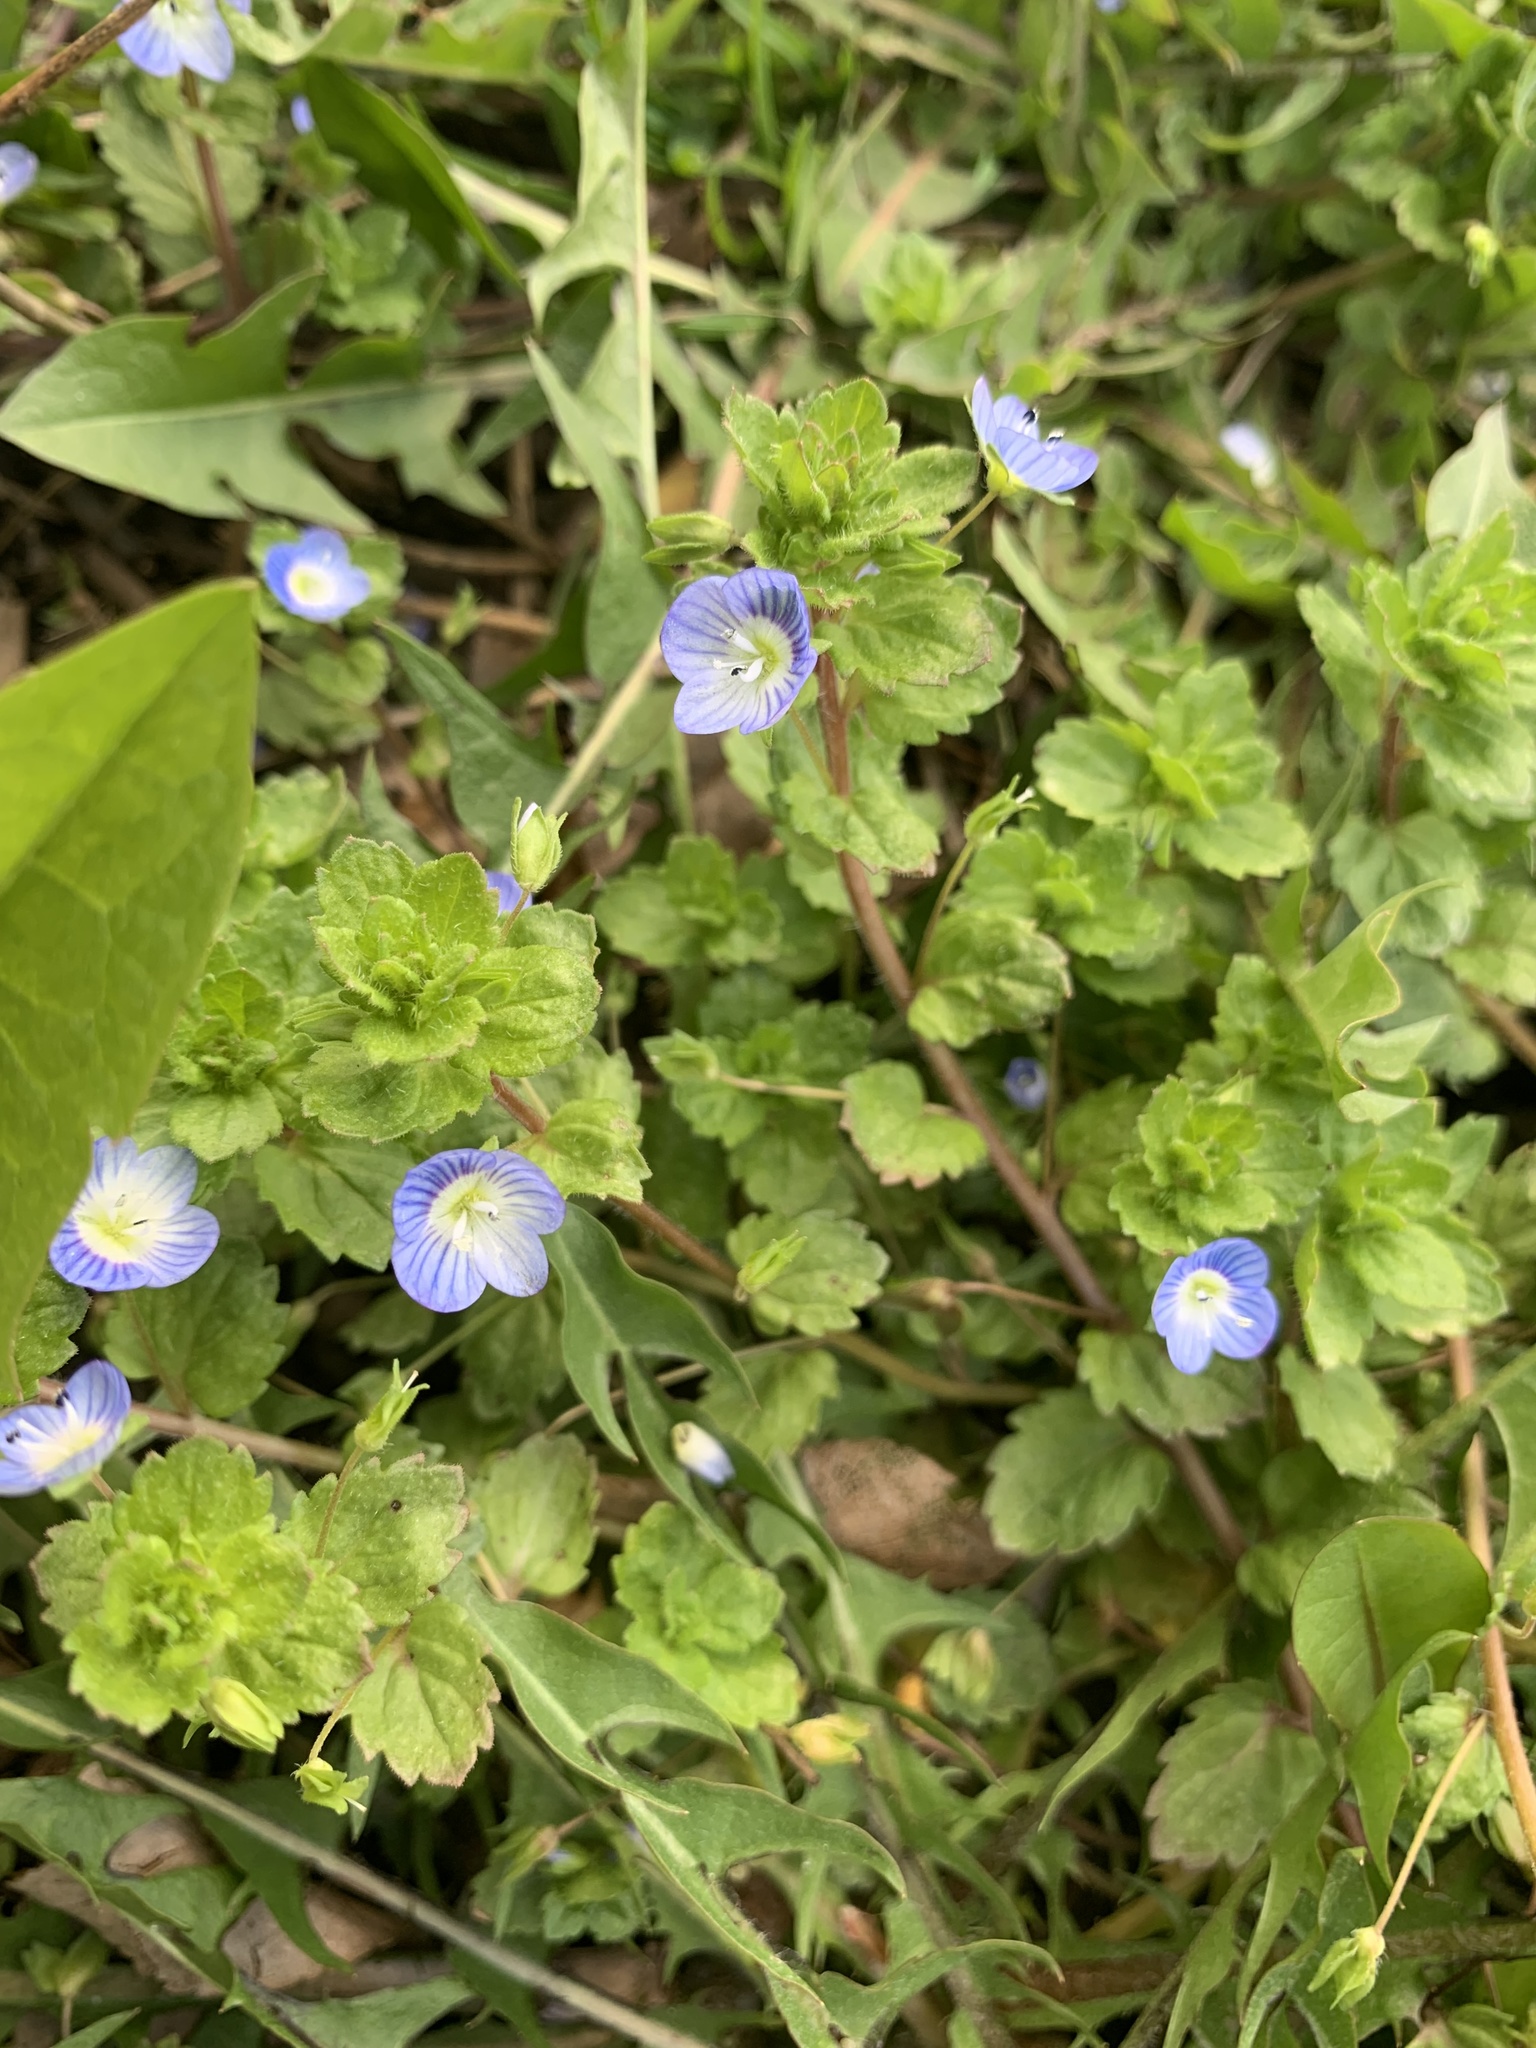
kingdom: Plantae
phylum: Tracheophyta
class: Magnoliopsida
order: Lamiales
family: Plantaginaceae
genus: Veronica
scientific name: Veronica persica
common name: Common field-speedwell
